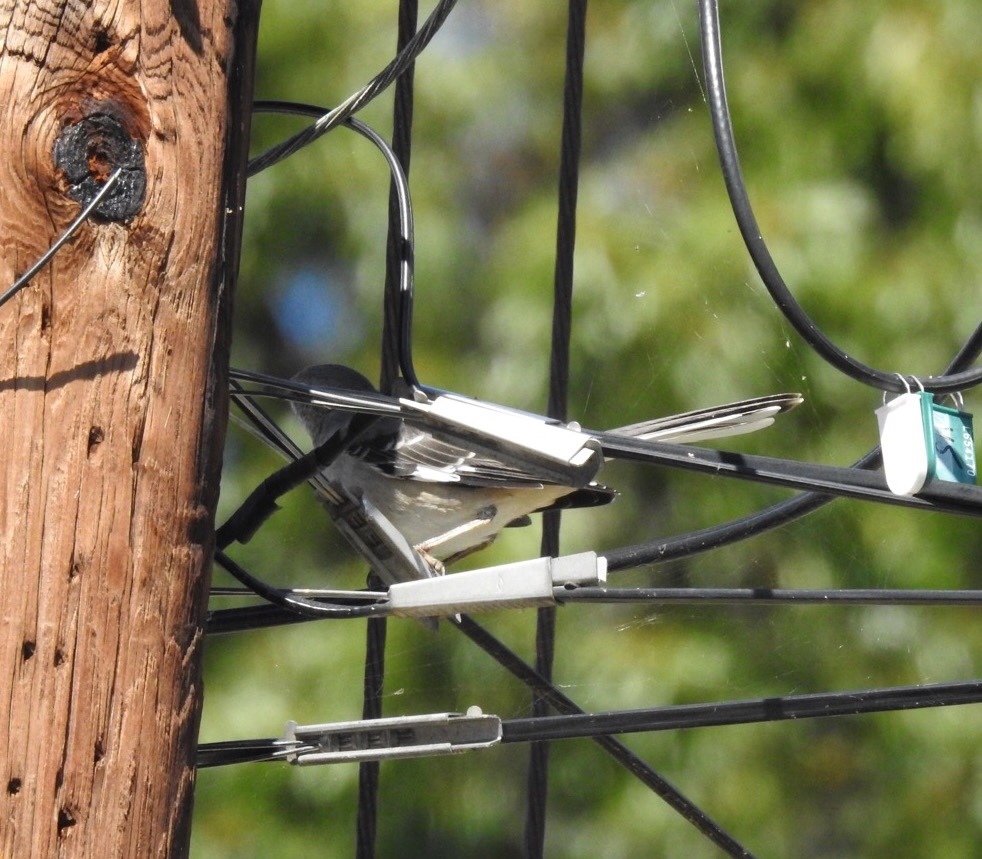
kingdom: Animalia
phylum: Chordata
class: Aves
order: Passeriformes
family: Mimidae
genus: Mimus
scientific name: Mimus polyglottos
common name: Northern mockingbird
